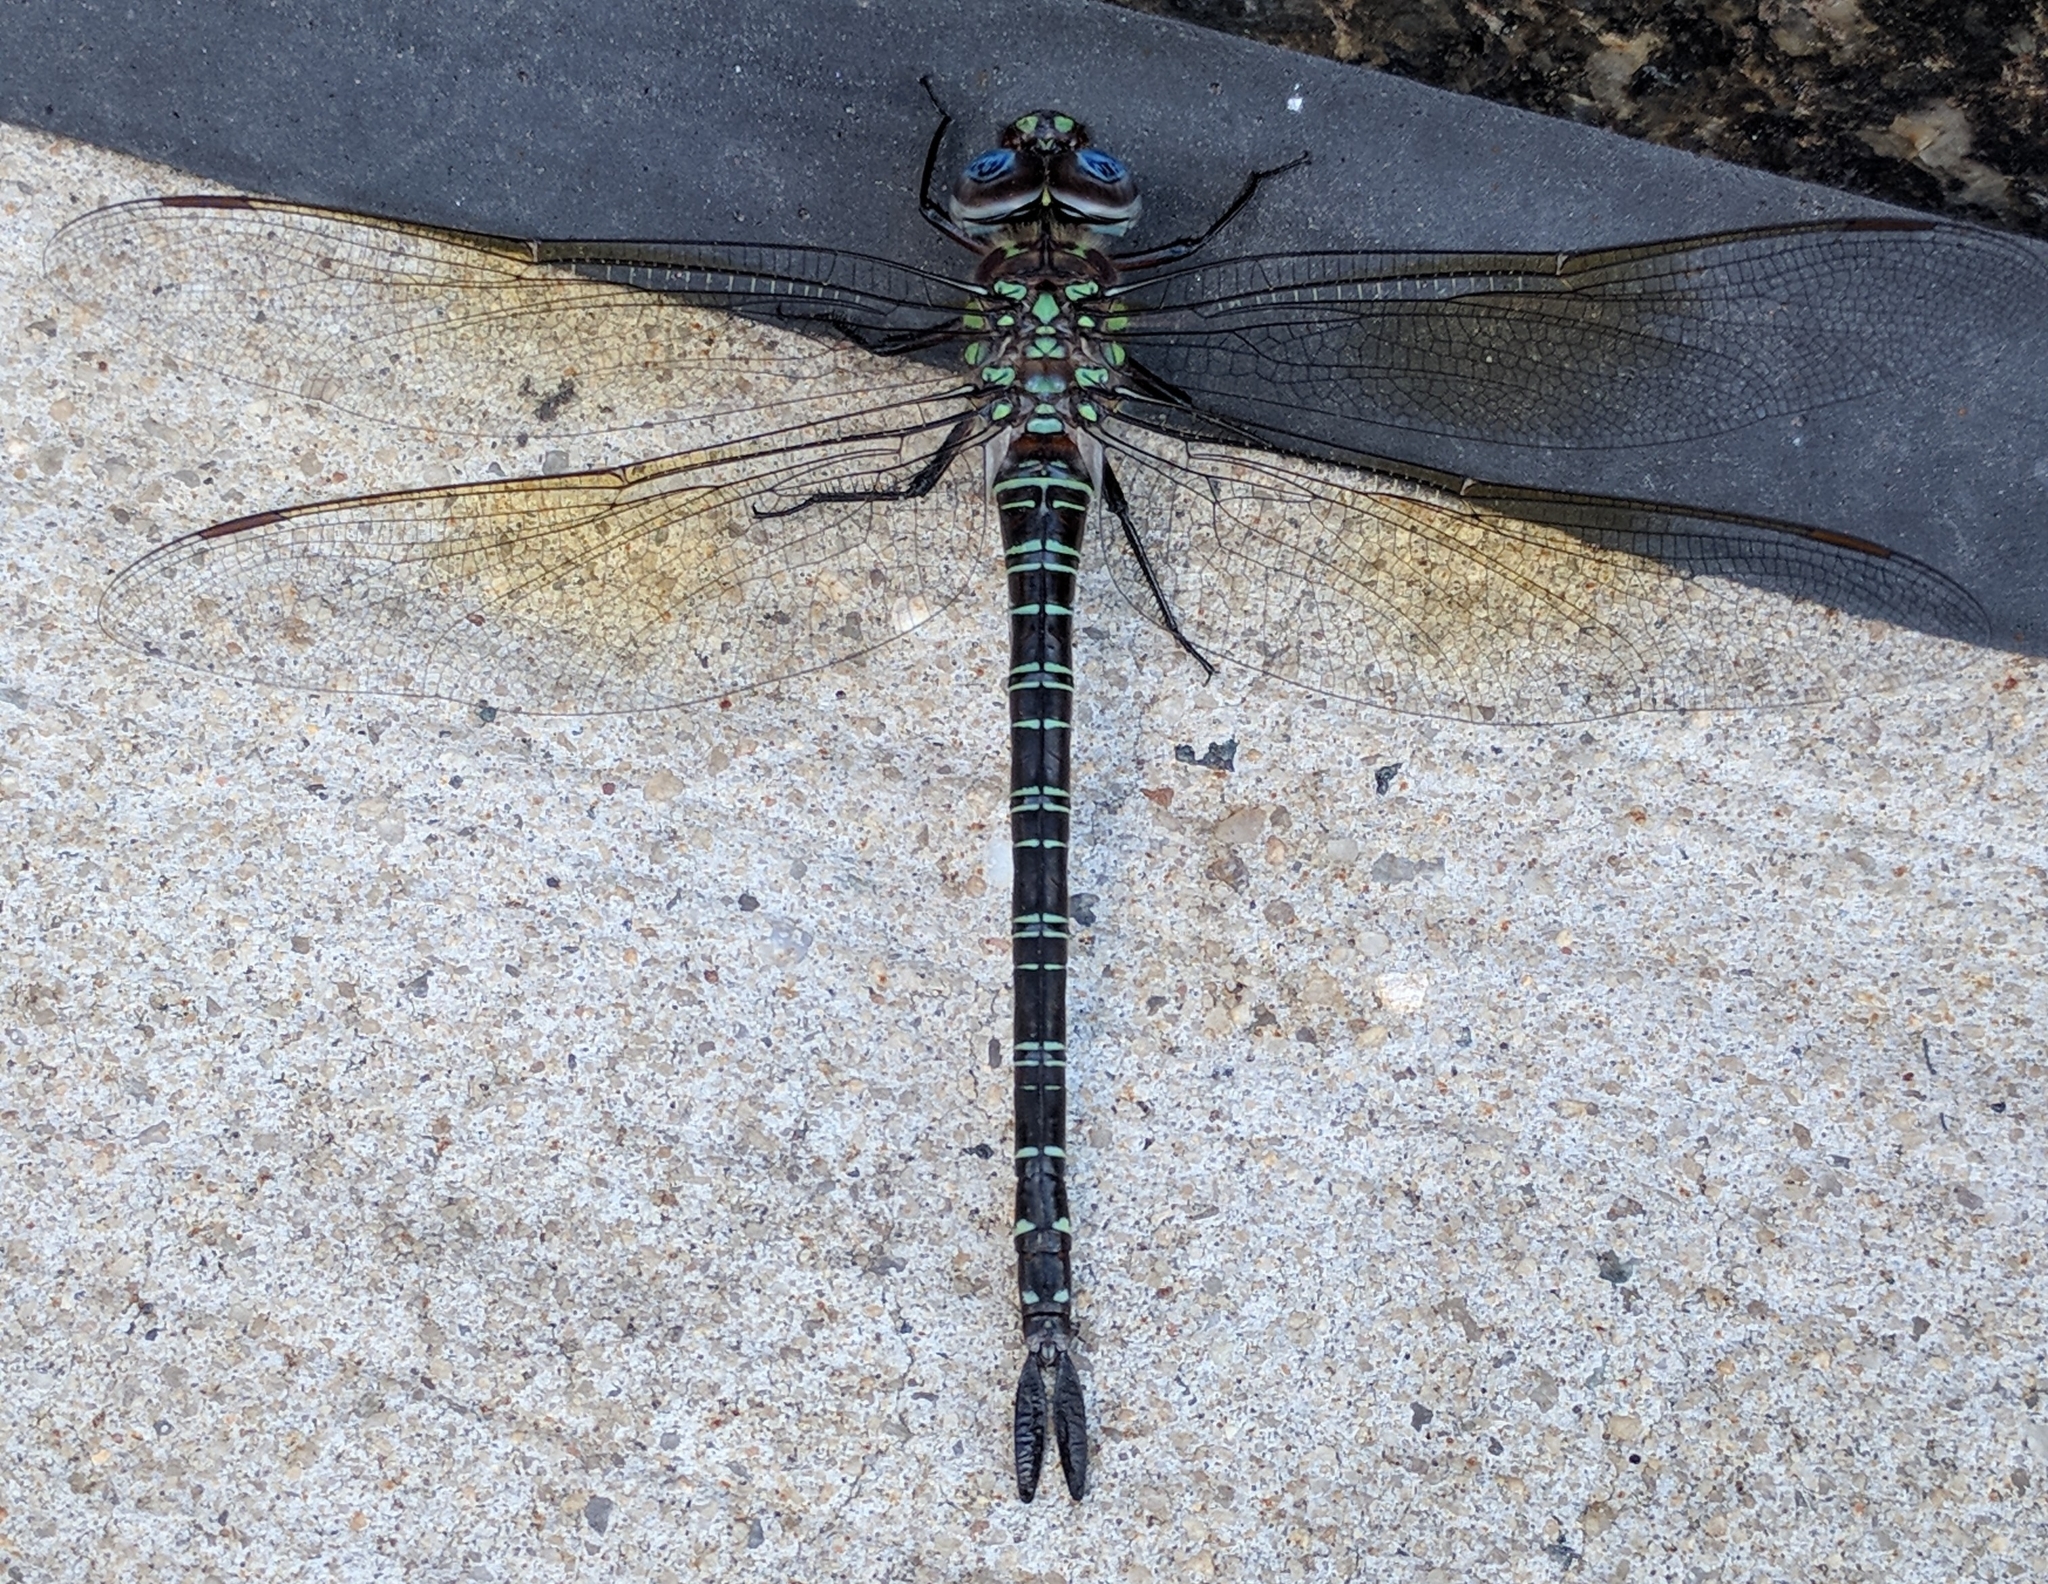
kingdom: Animalia
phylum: Arthropoda
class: Insecta
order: Odonata
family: Aeshnidae
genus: Epiaeschna
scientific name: Epiaeschna heros
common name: Swamp darner
